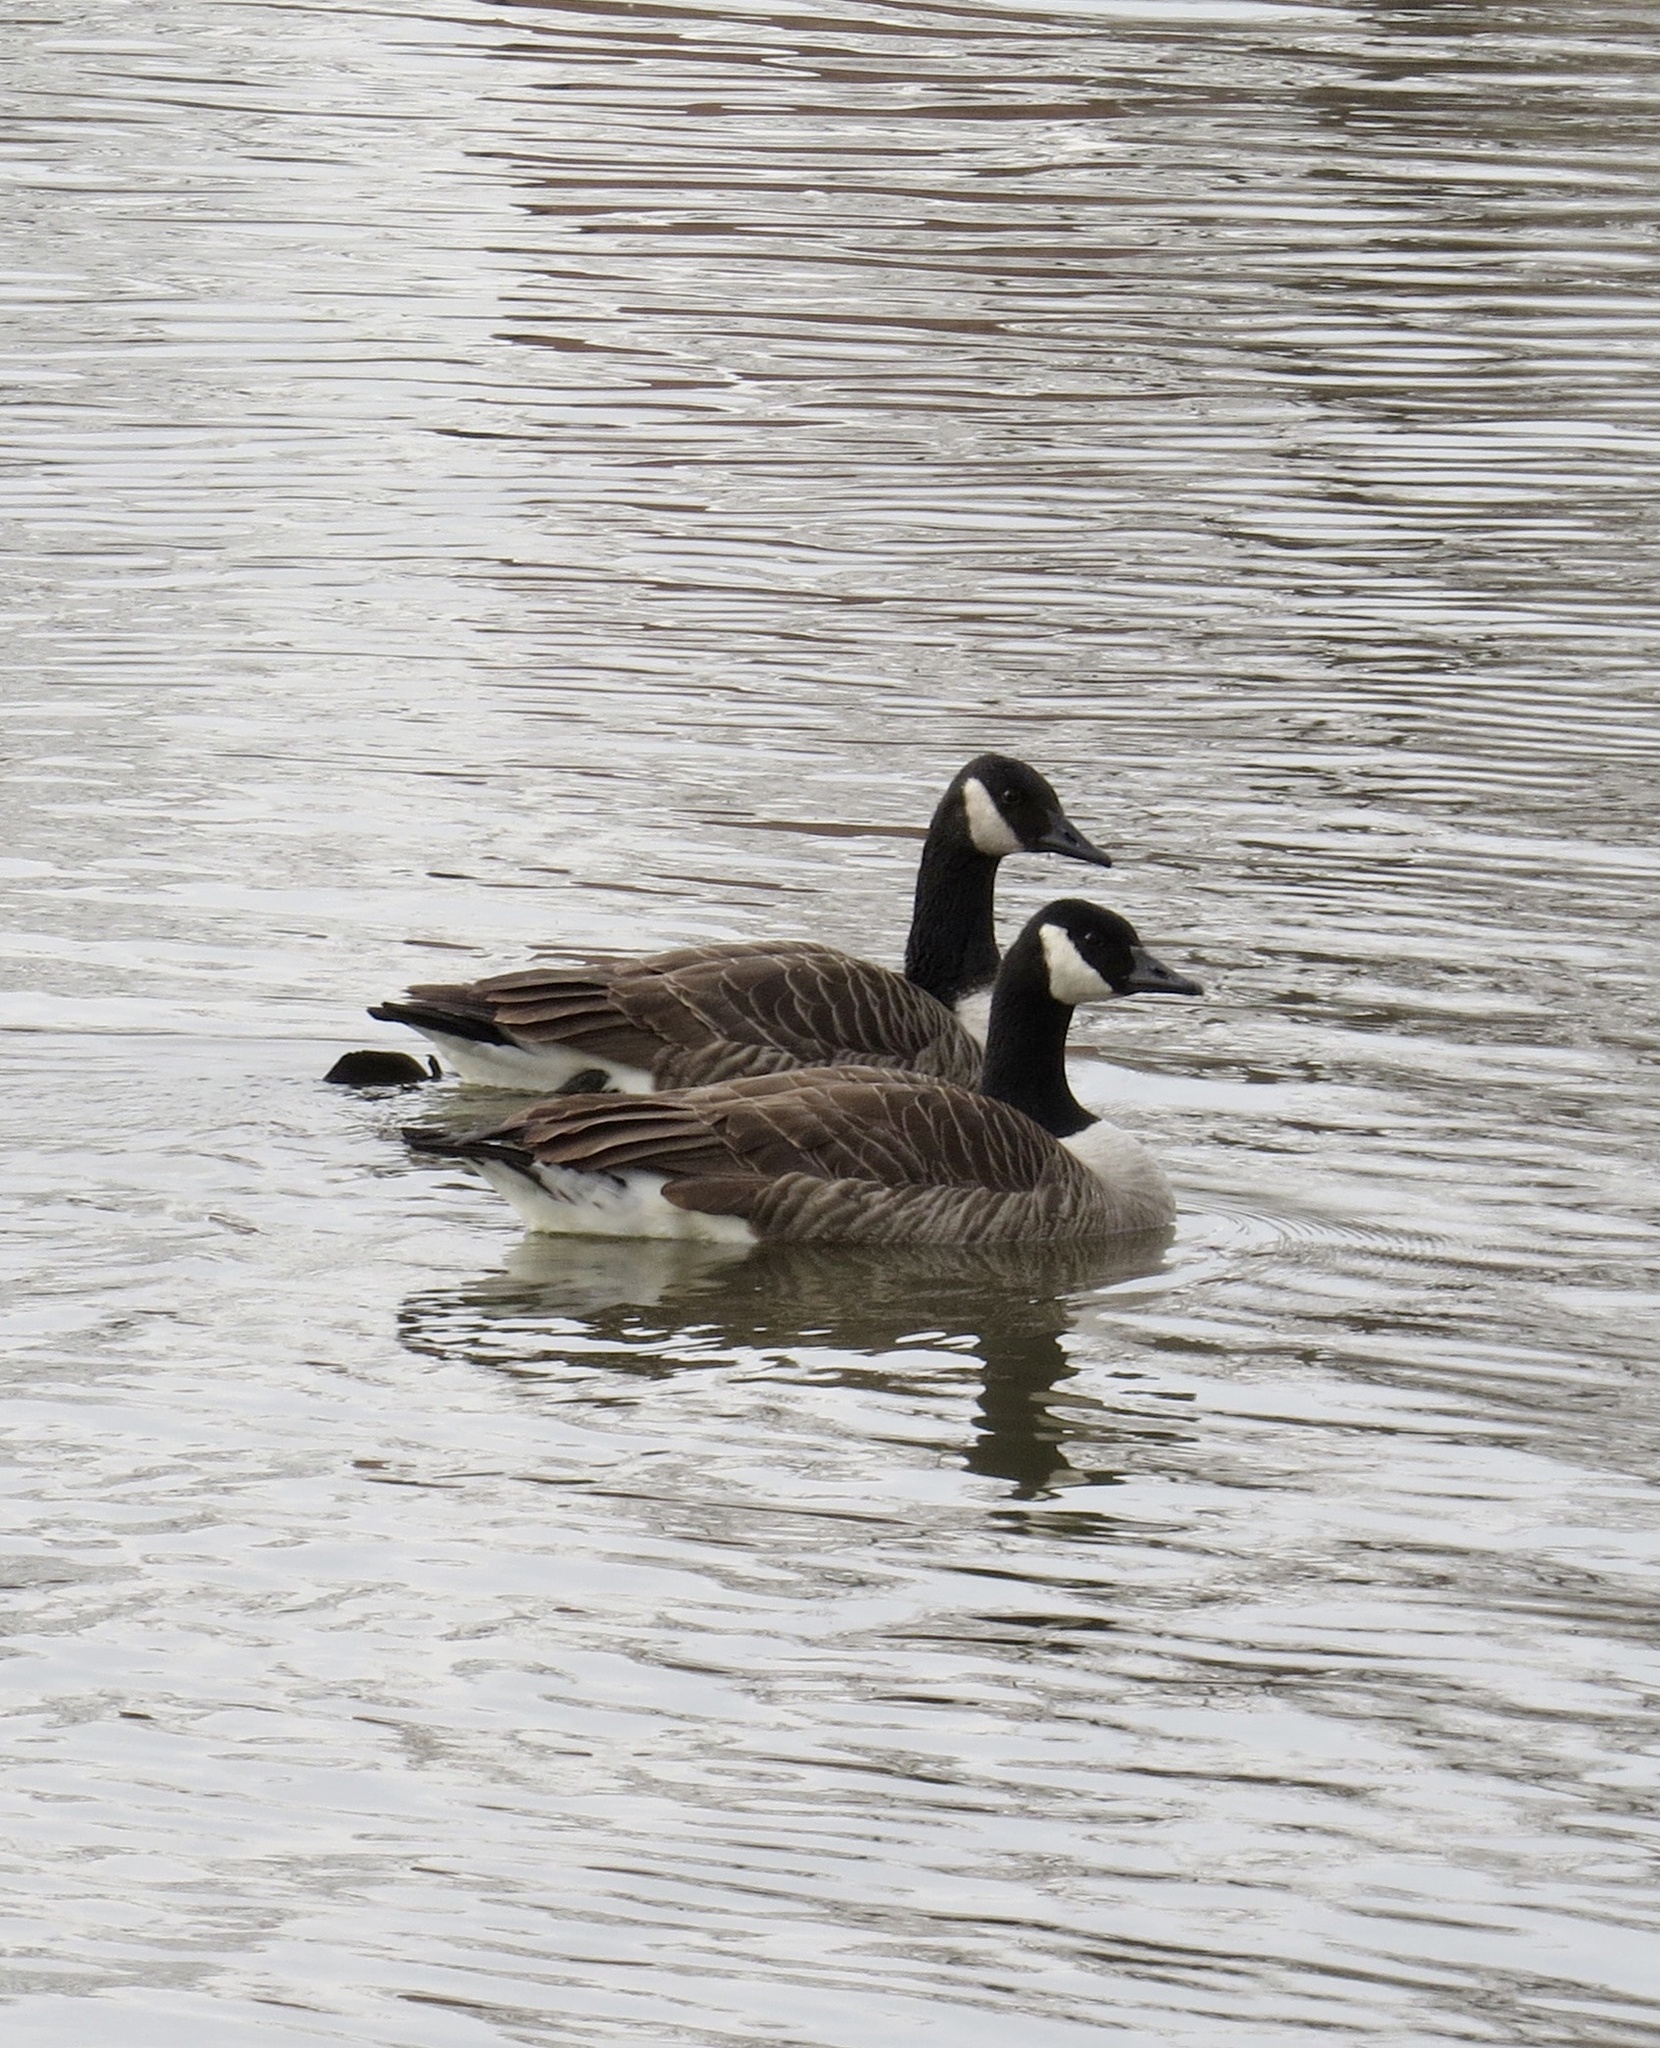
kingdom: Animalia
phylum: Chordata
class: Aves
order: Anseriformes
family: Anatidae
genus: Branta
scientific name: Branta canadensis
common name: Canada goose
